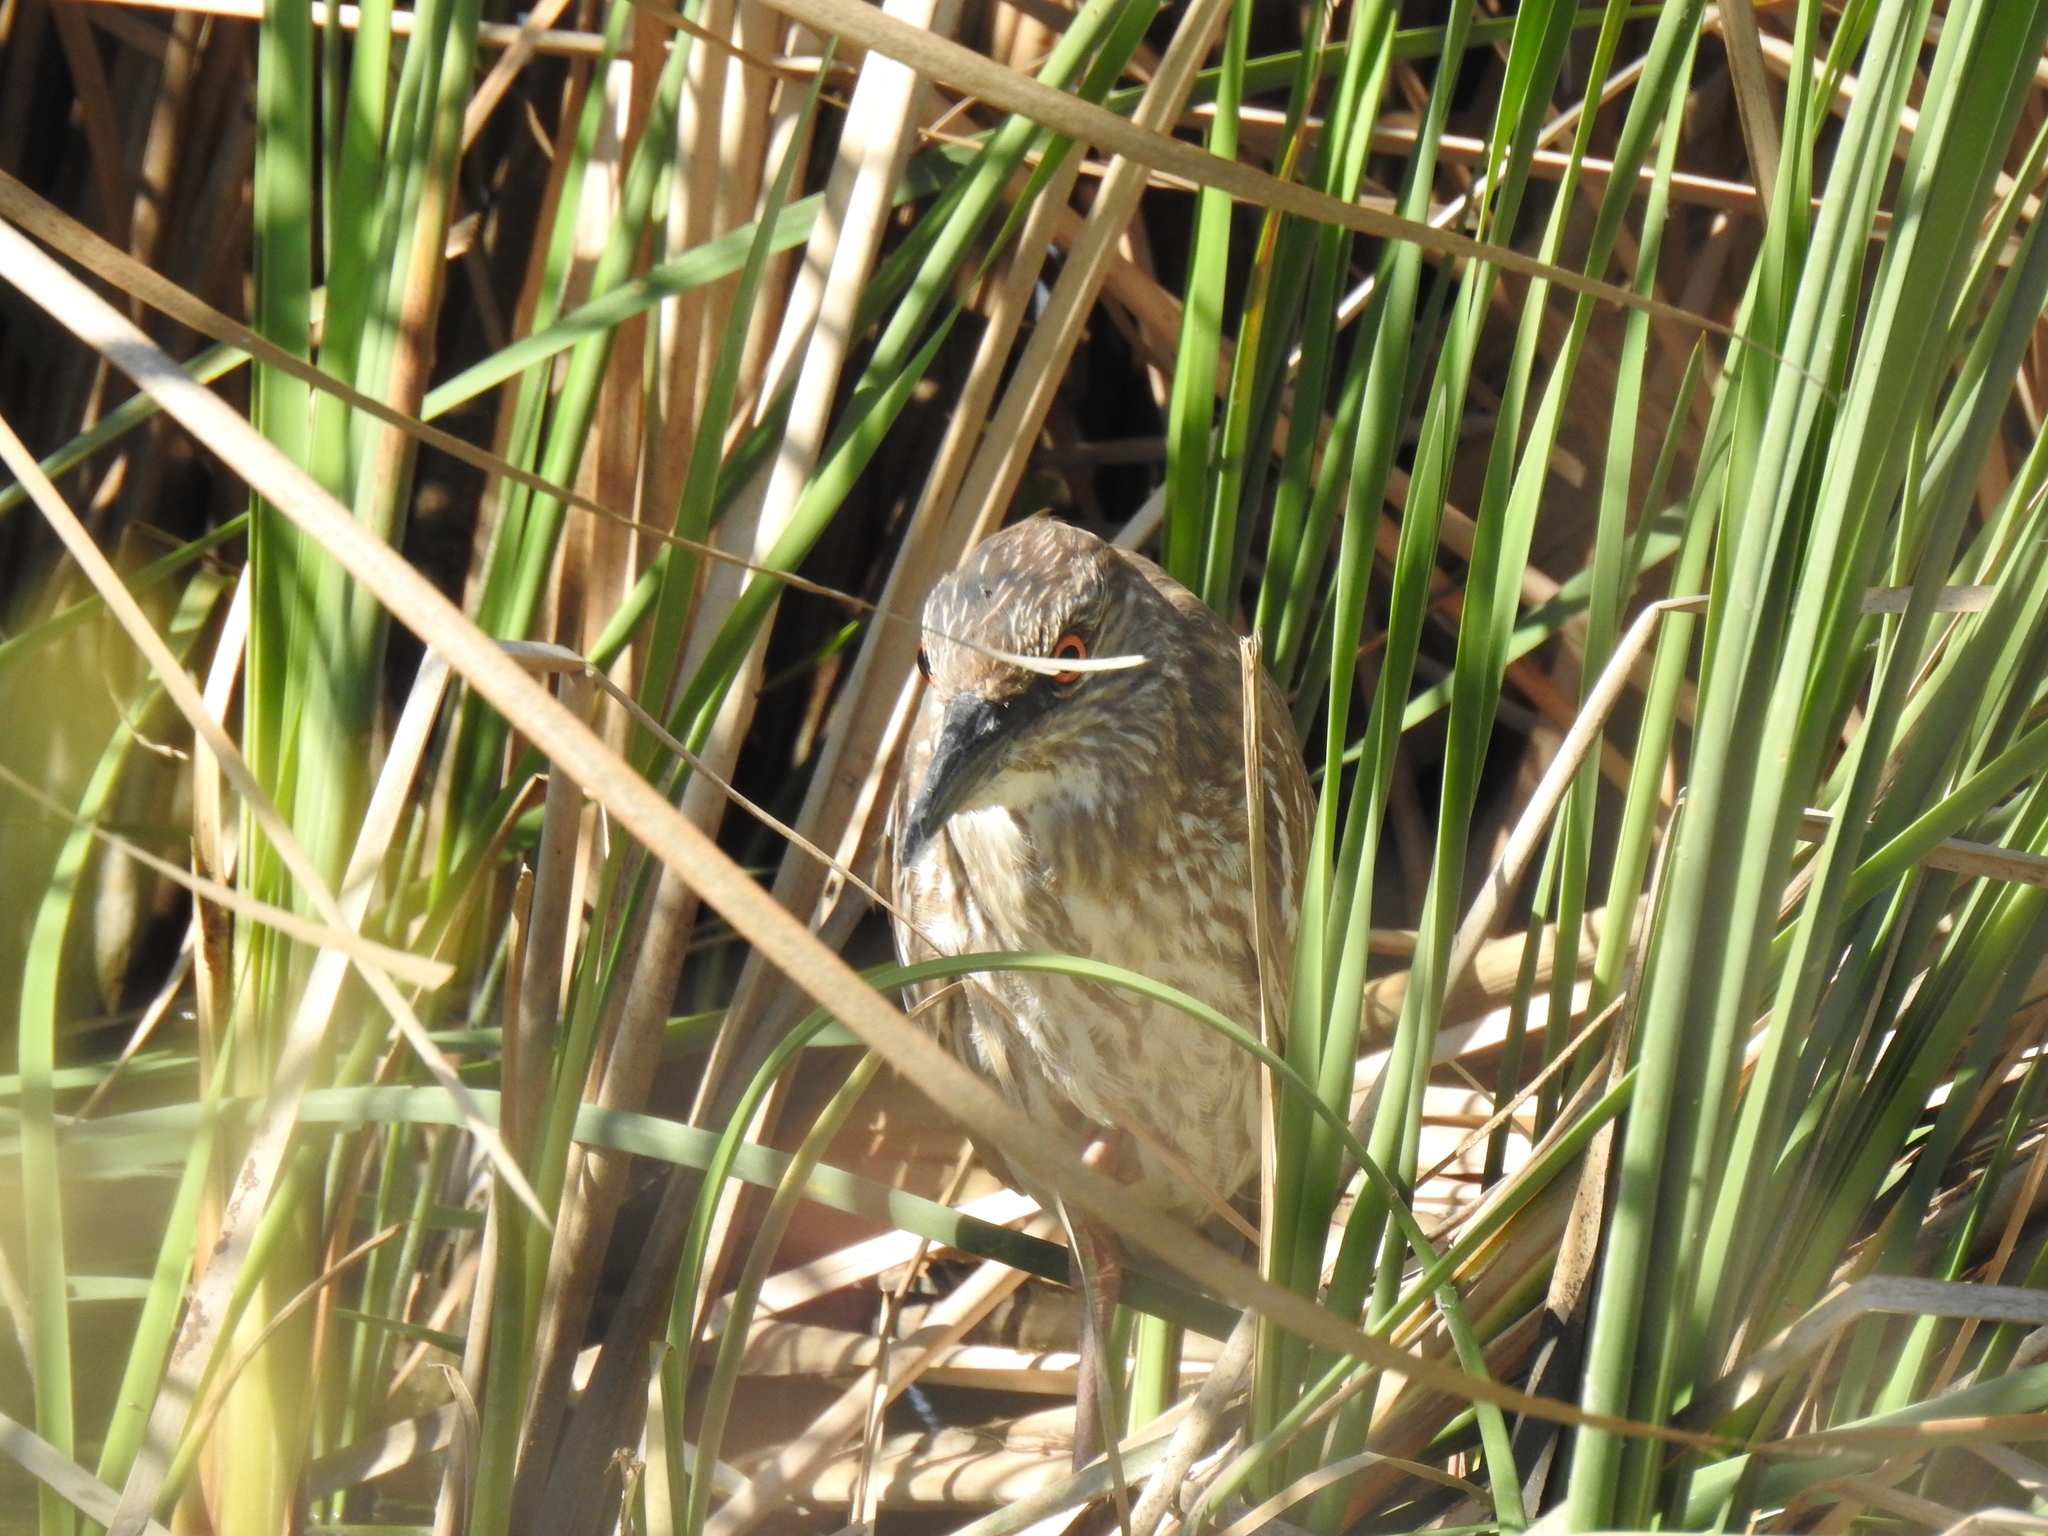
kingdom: Animalia
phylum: Chordata
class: Aves
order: Pelecaniformes
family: Ardeidae
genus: Nycticorax
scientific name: Nycticorax nycticorax
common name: Black-crowned night heron
